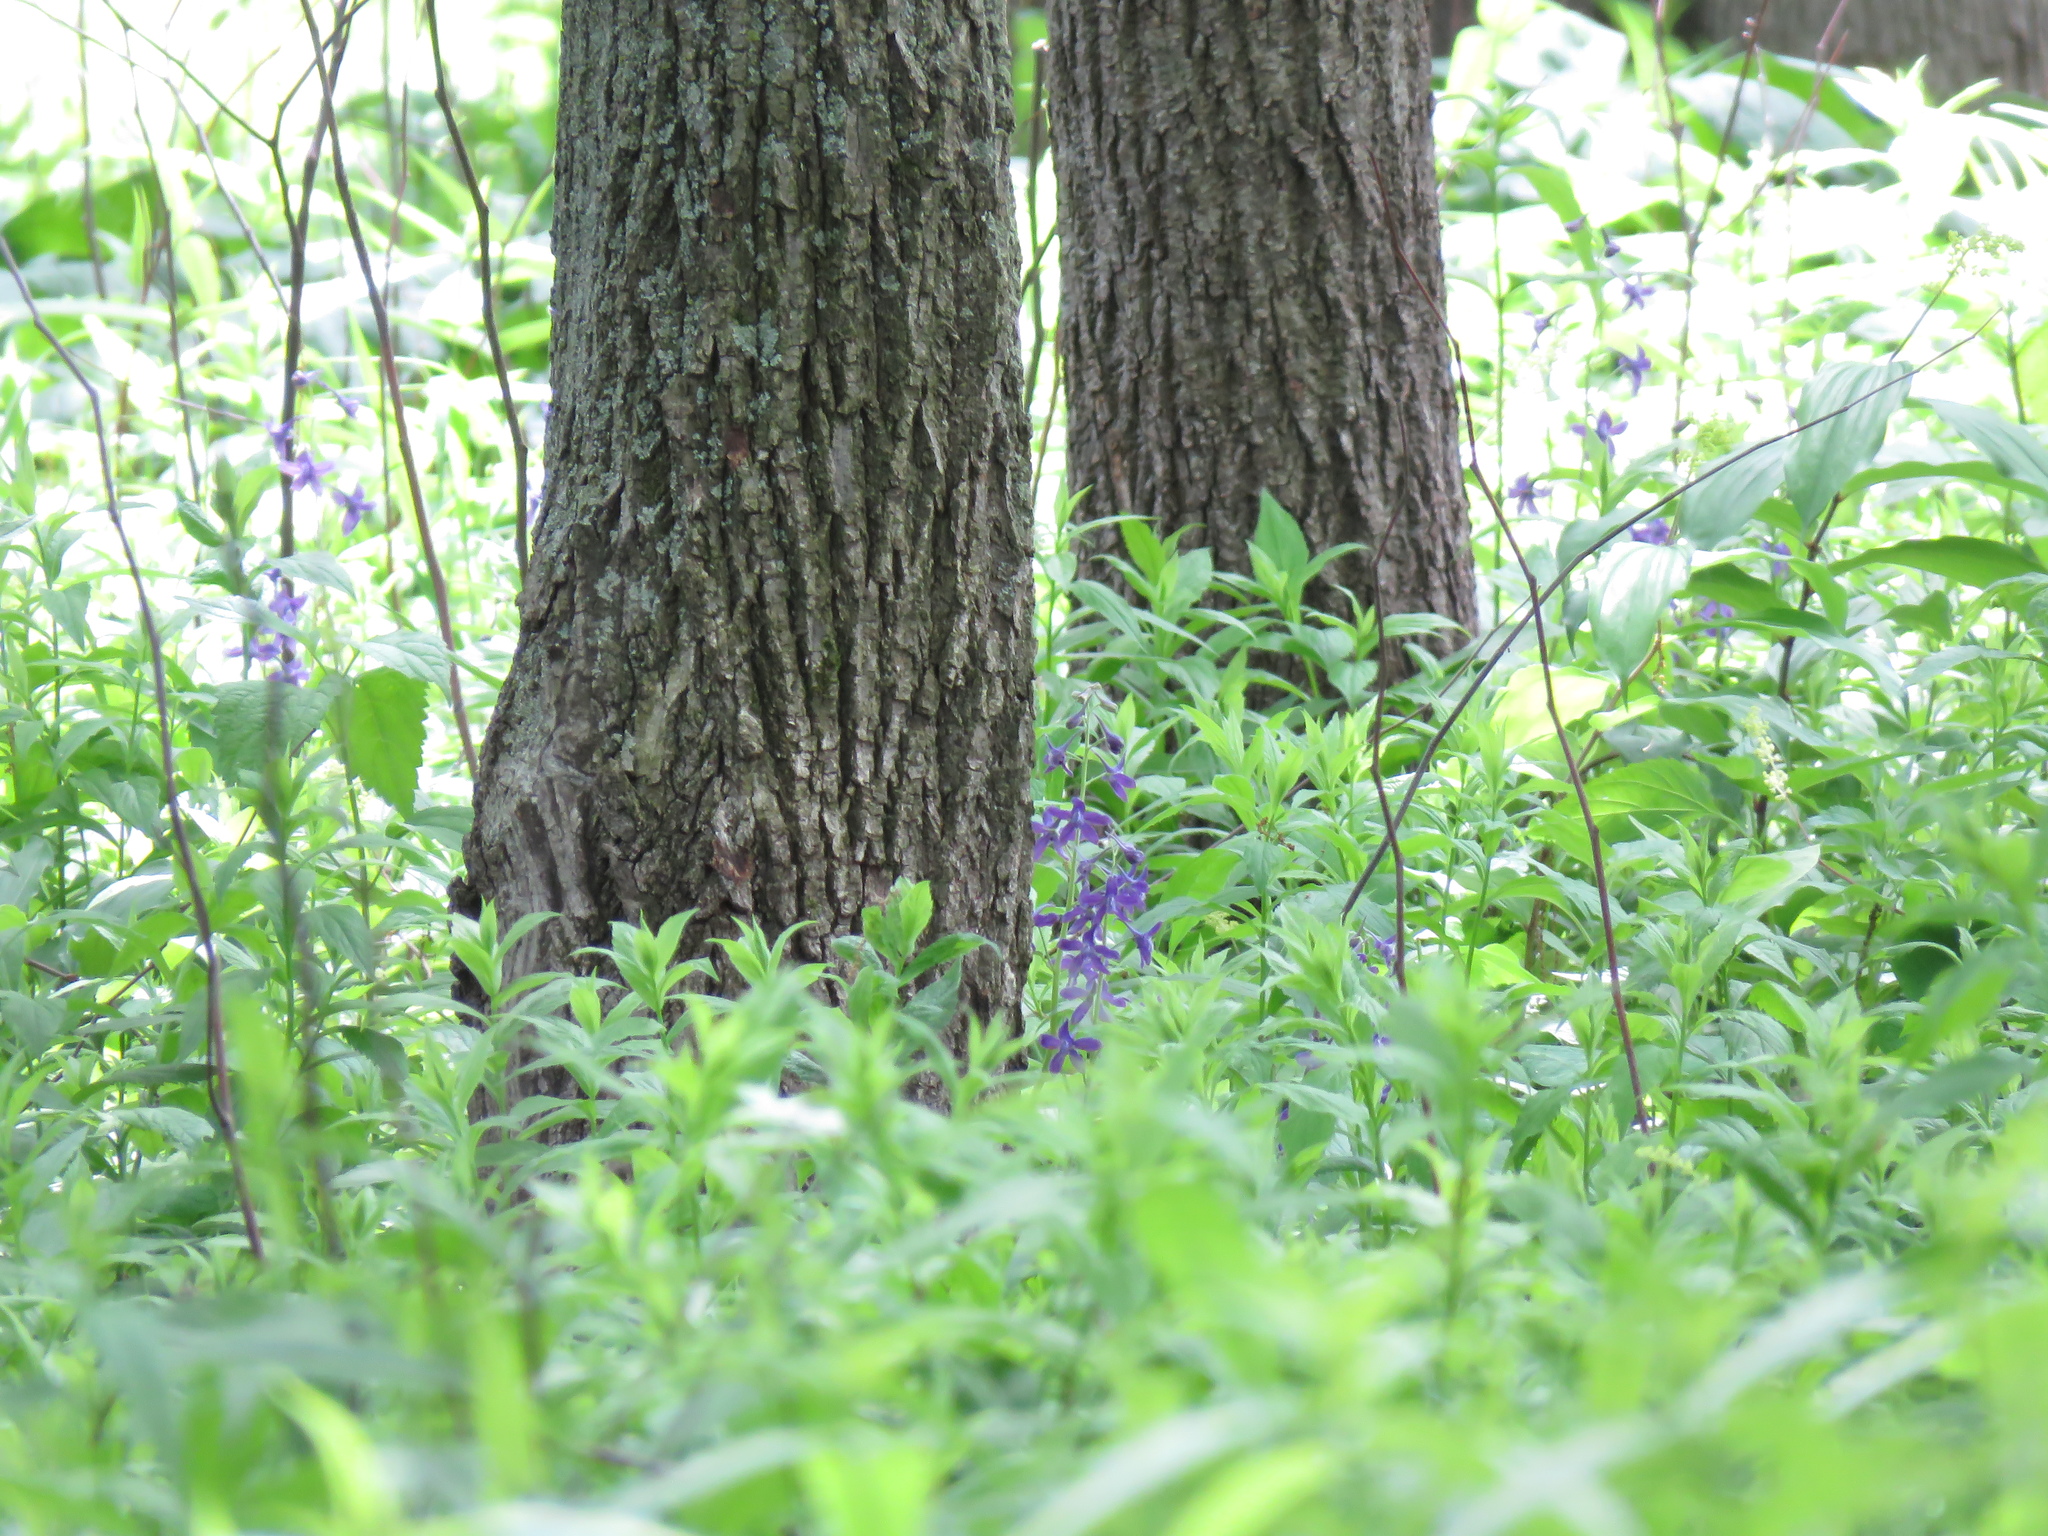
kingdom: Plantae
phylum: Tracheophyta
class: Magnoliopsida
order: Ranunculales
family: Ranunculaceae
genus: Delphinium
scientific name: Delphinium tricorne
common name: Dwarf larkspur
